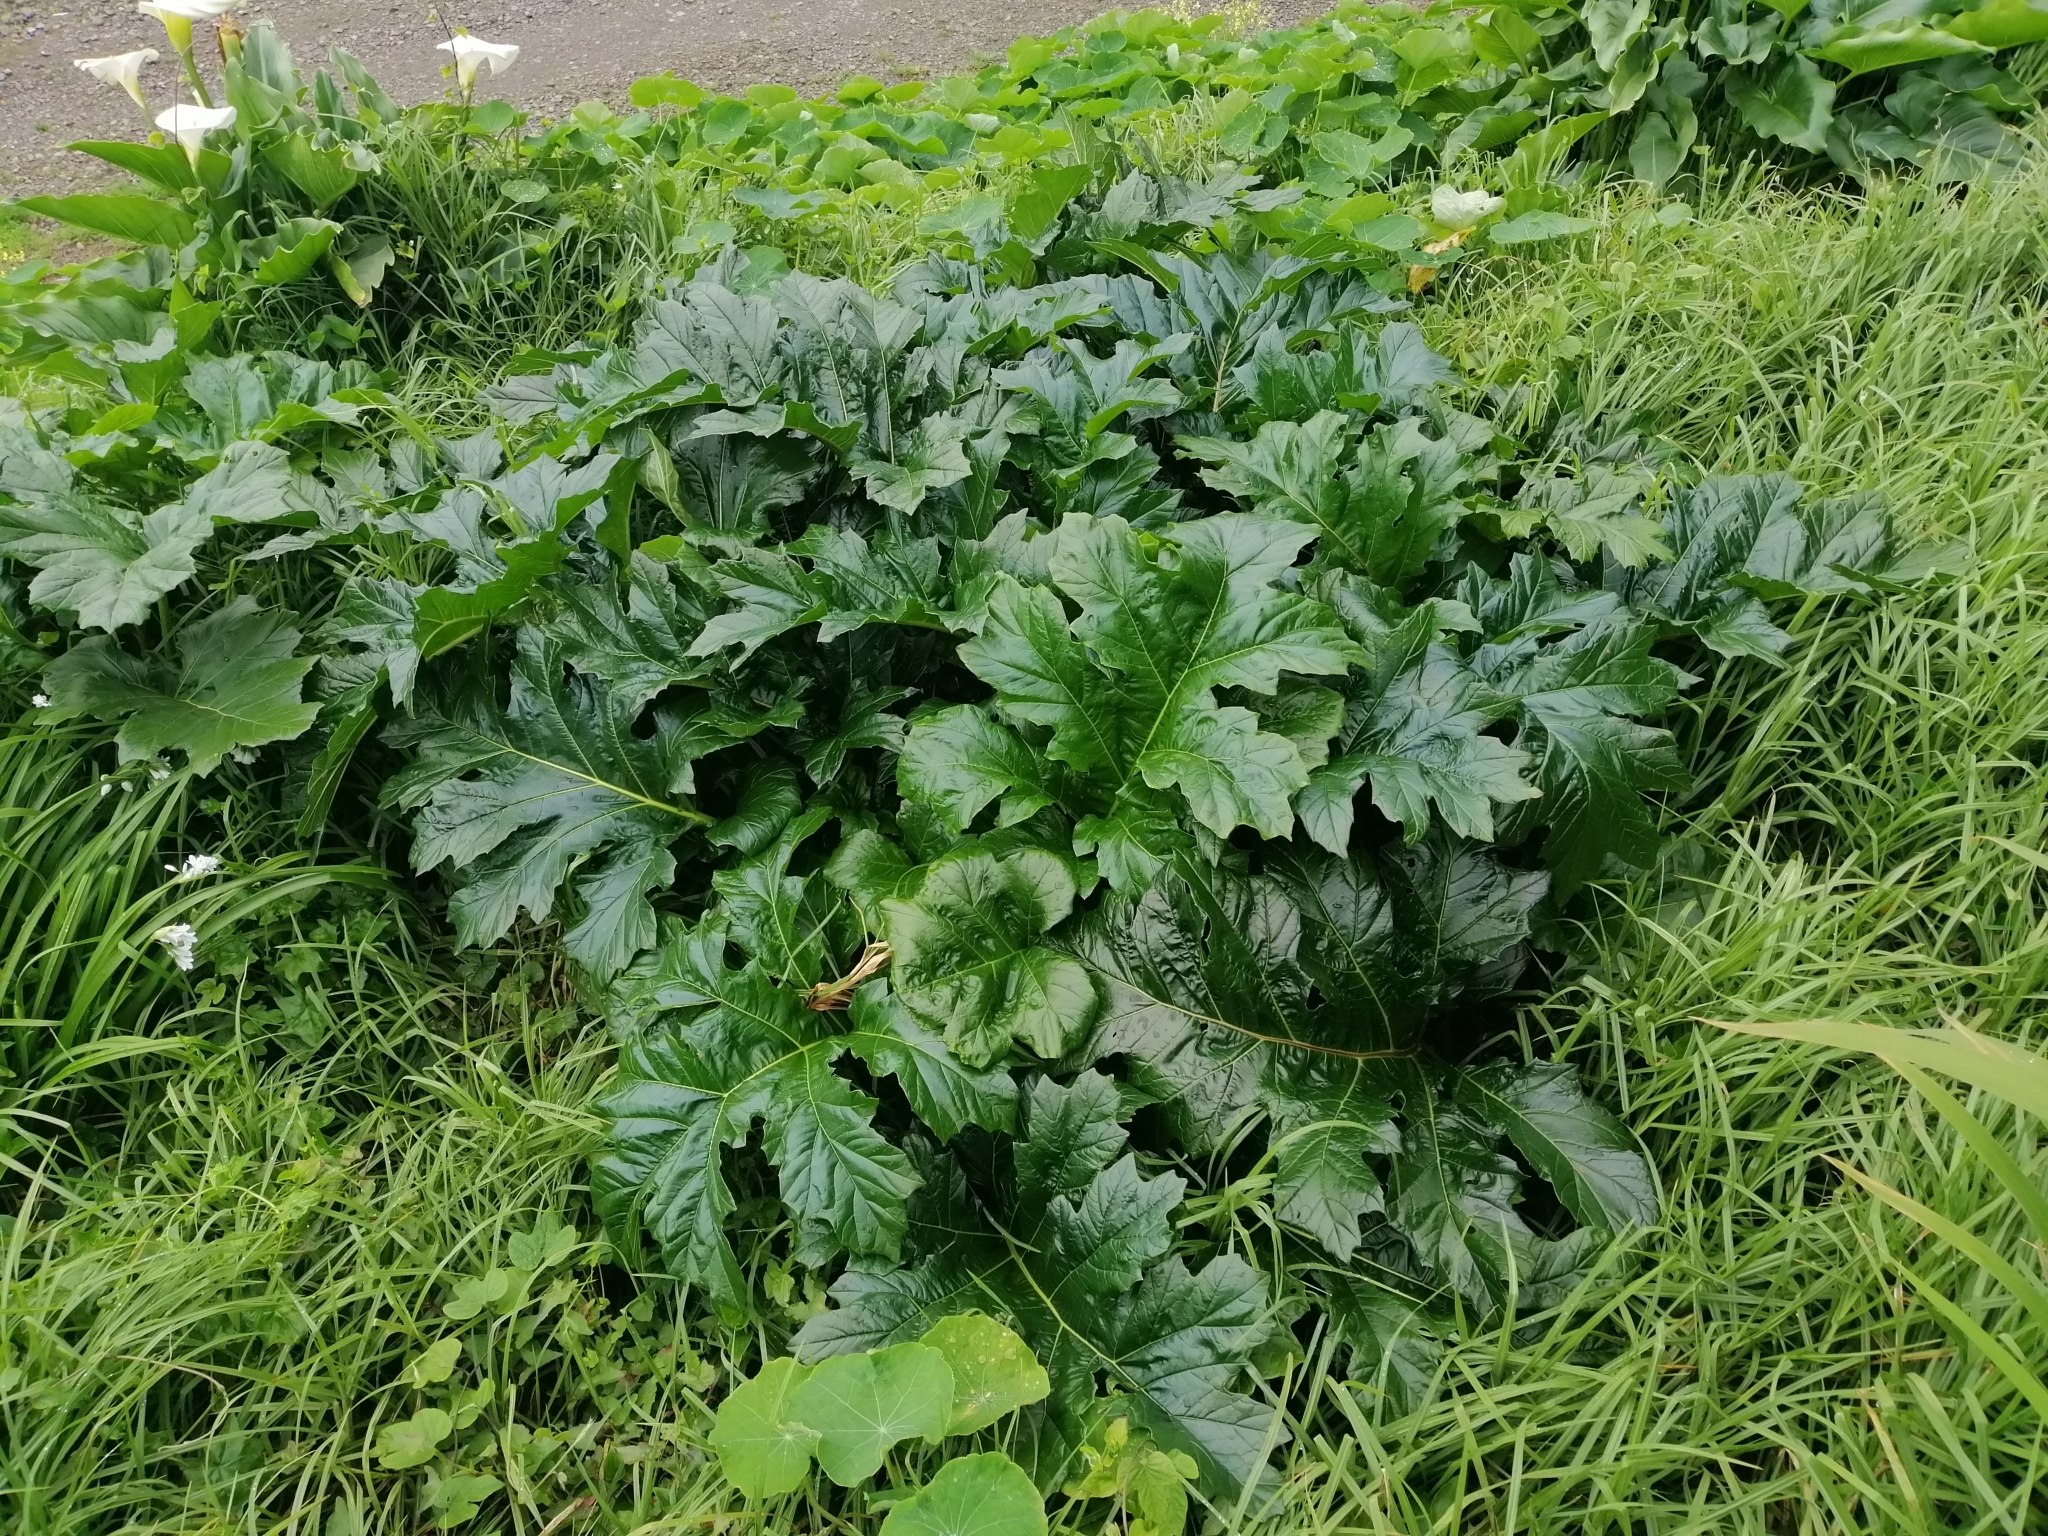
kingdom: Plantae
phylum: Tracheophyta
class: Magnoliopsida
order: Lamiales
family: Acanthaceae
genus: Acanthus
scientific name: Acanthus mollis
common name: Bear's-breech
